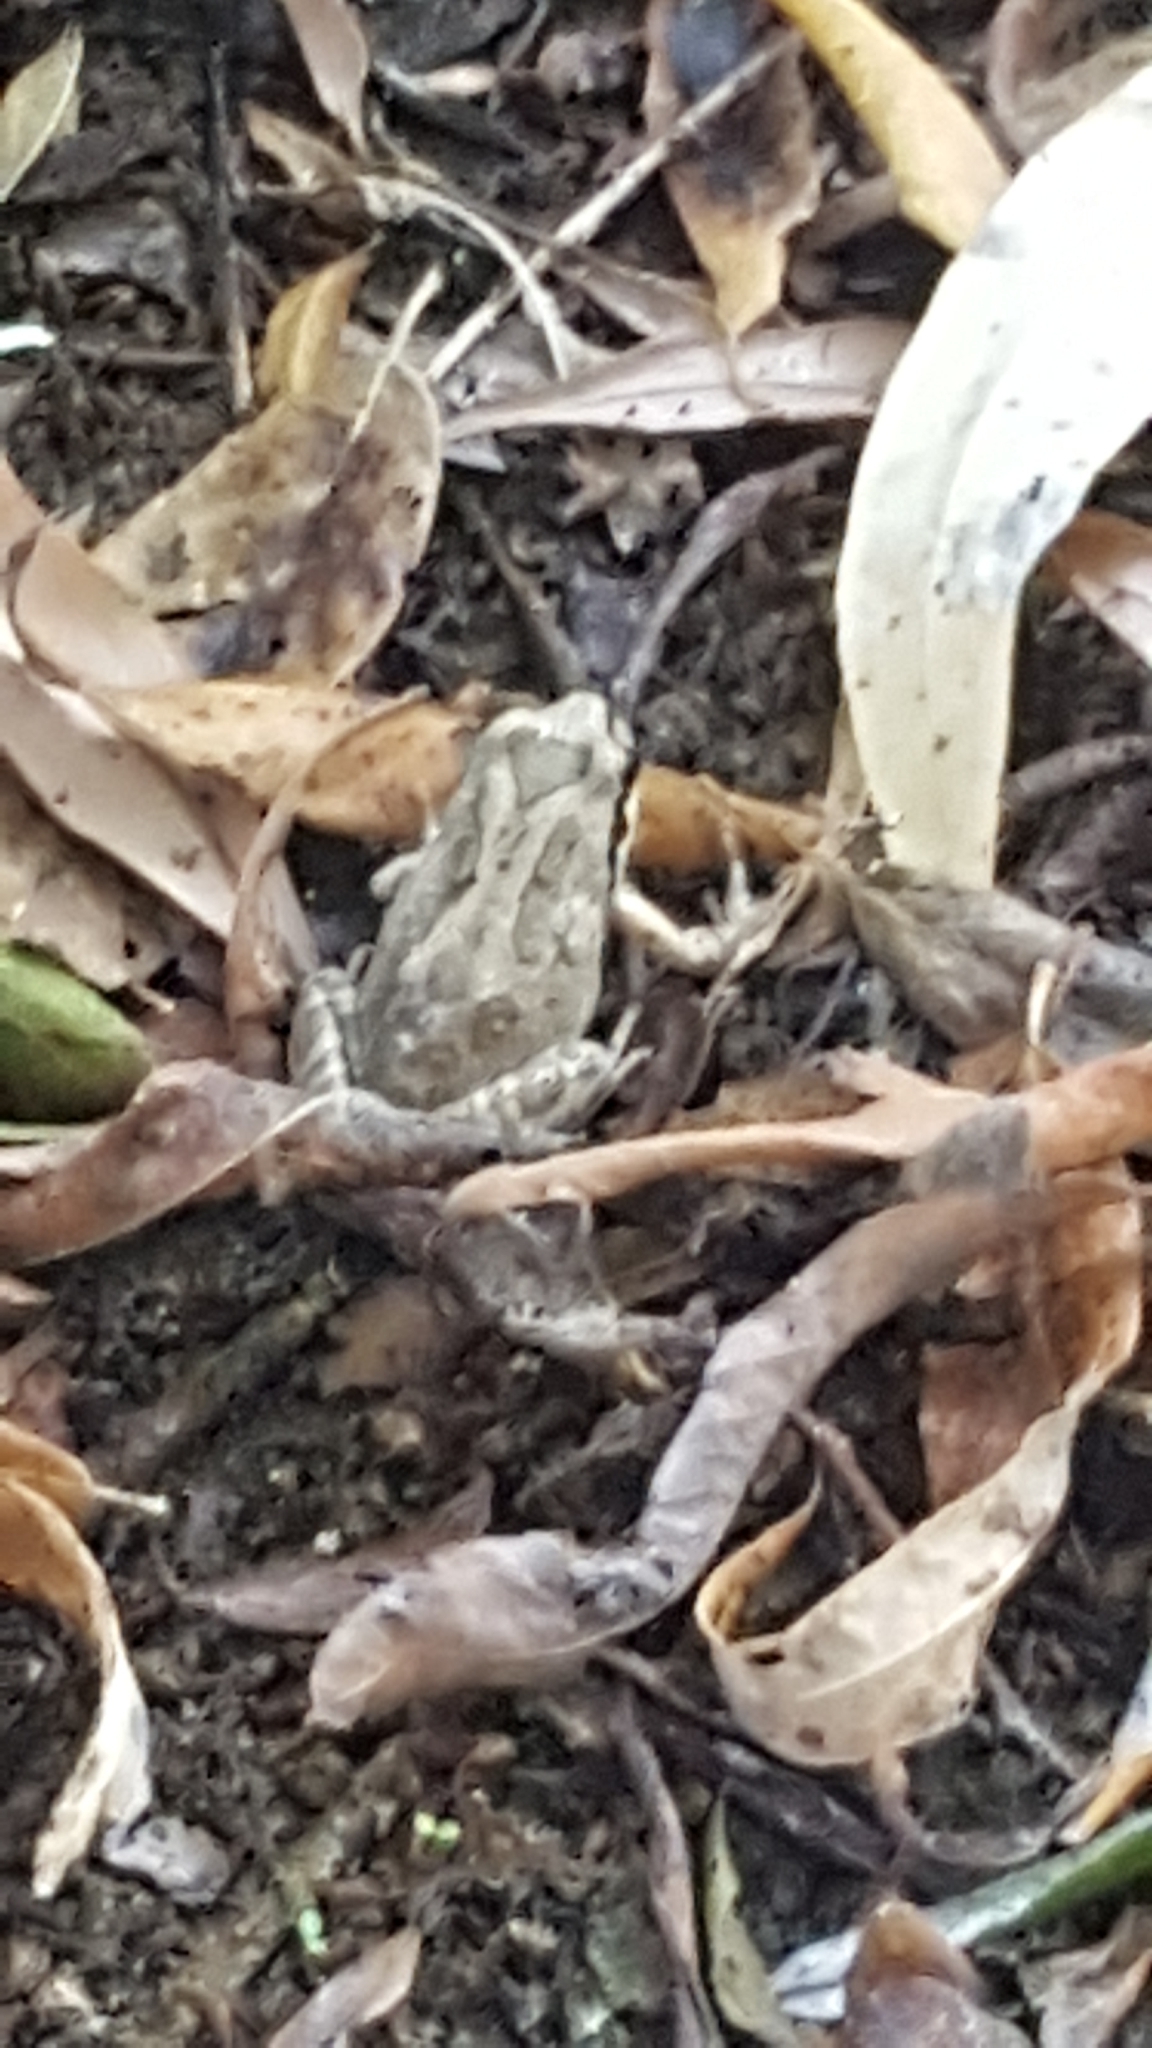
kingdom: Animalia
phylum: Chordata
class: Amphibia
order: Anura
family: Hylidae
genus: Pseudacris
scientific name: Pseudacris regilla
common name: Pacific chorus frog
